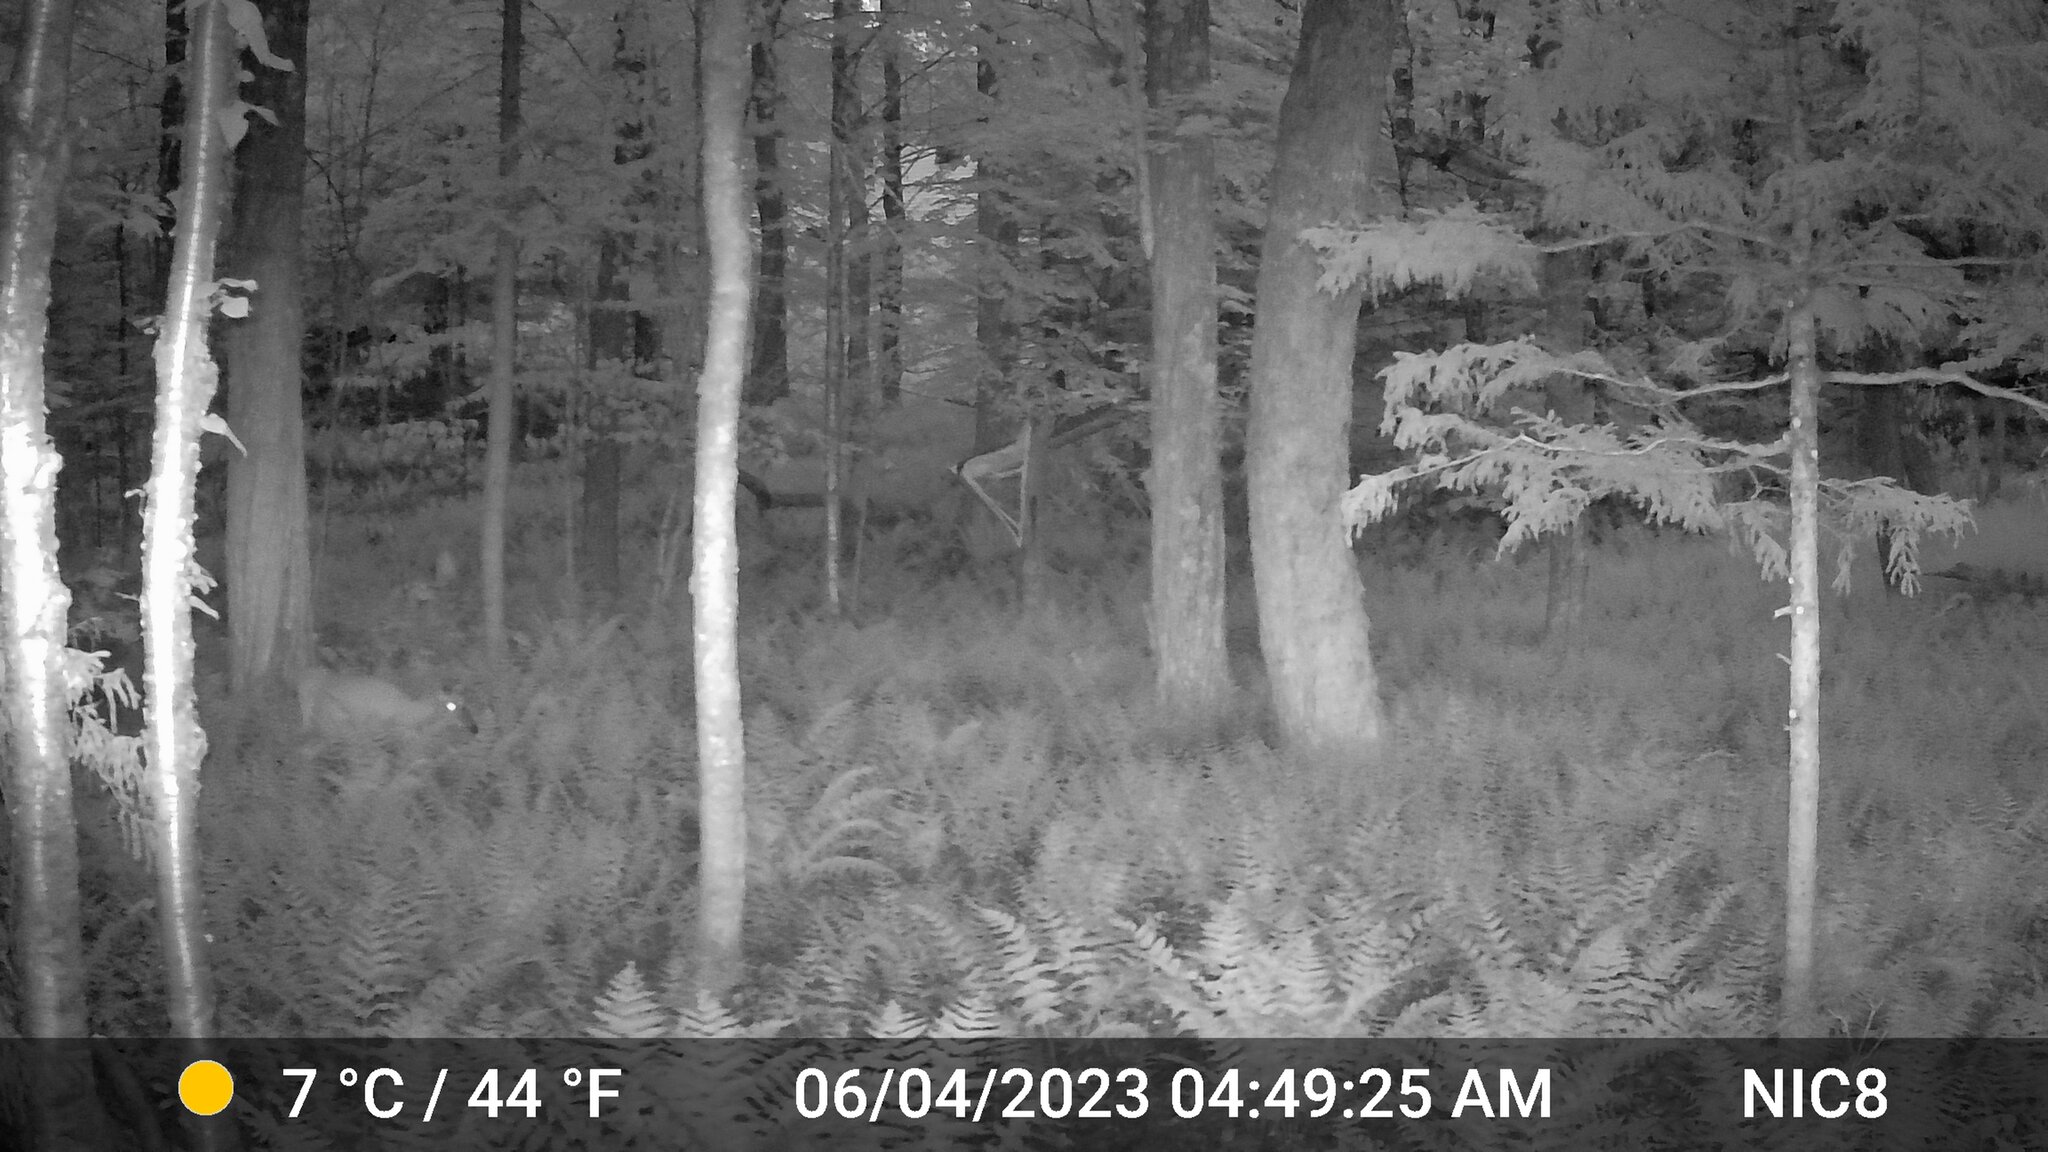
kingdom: Animalia
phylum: Chordata
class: Mammalia
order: Artiodactyla
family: Cervidae
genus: Odocoileus
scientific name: Odocoileus virginianus
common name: White-tailed deer
